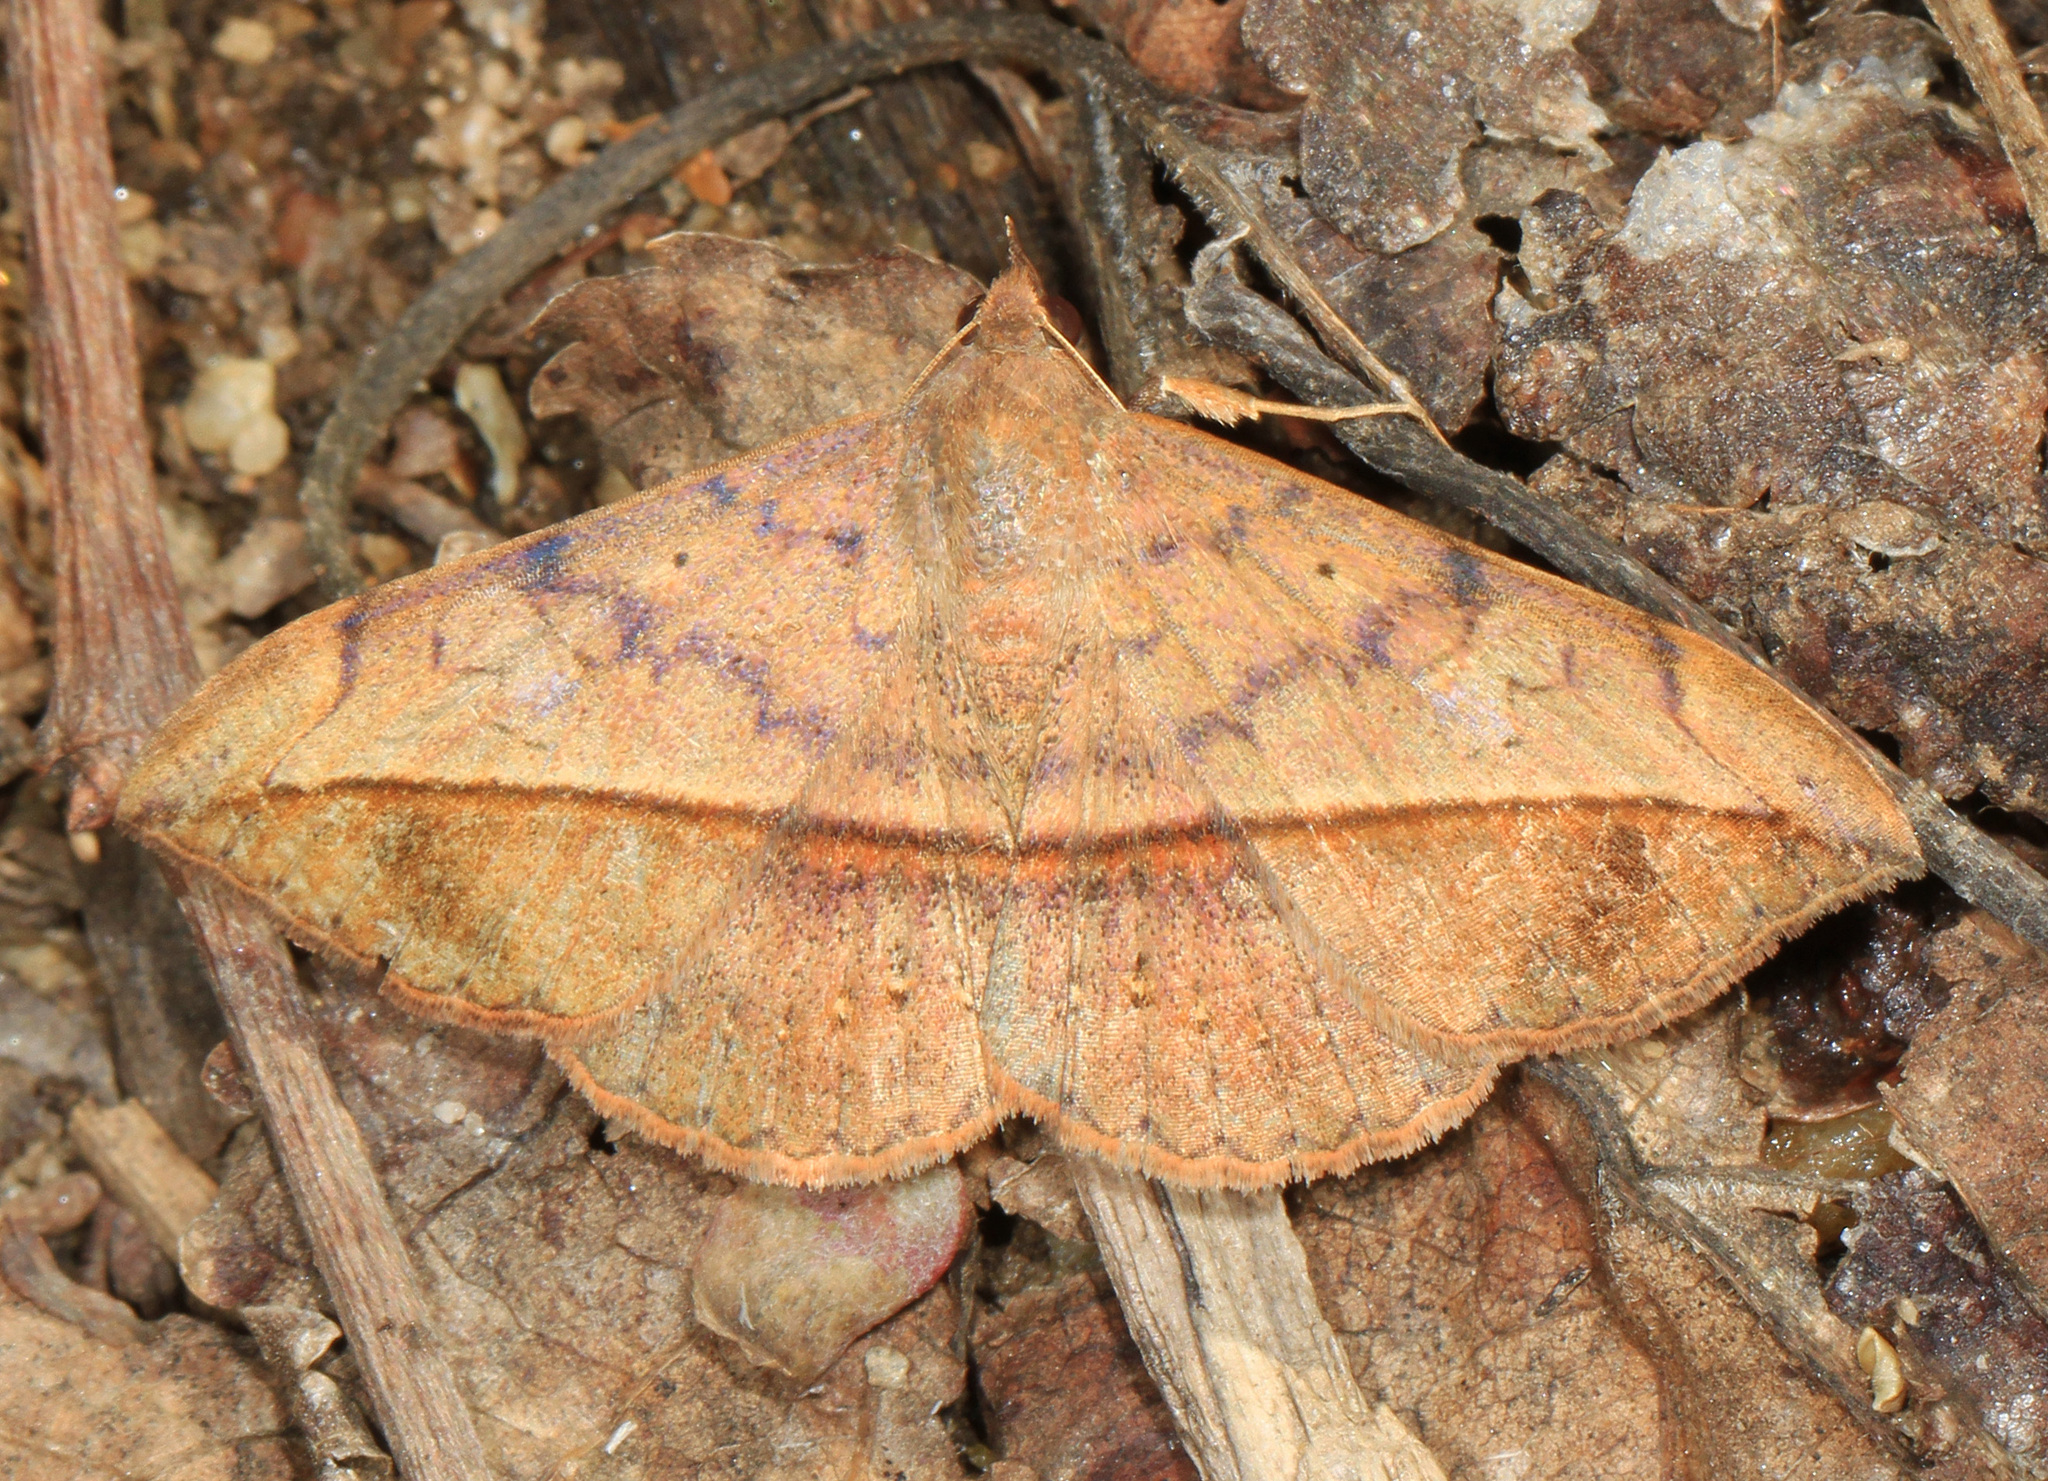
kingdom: Animalia
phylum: Arthropoda
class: Insecta
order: Lepidoptera
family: Erebidae
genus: Anticarsia
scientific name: Anticarsia gemmatalis
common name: Cutworm moth
